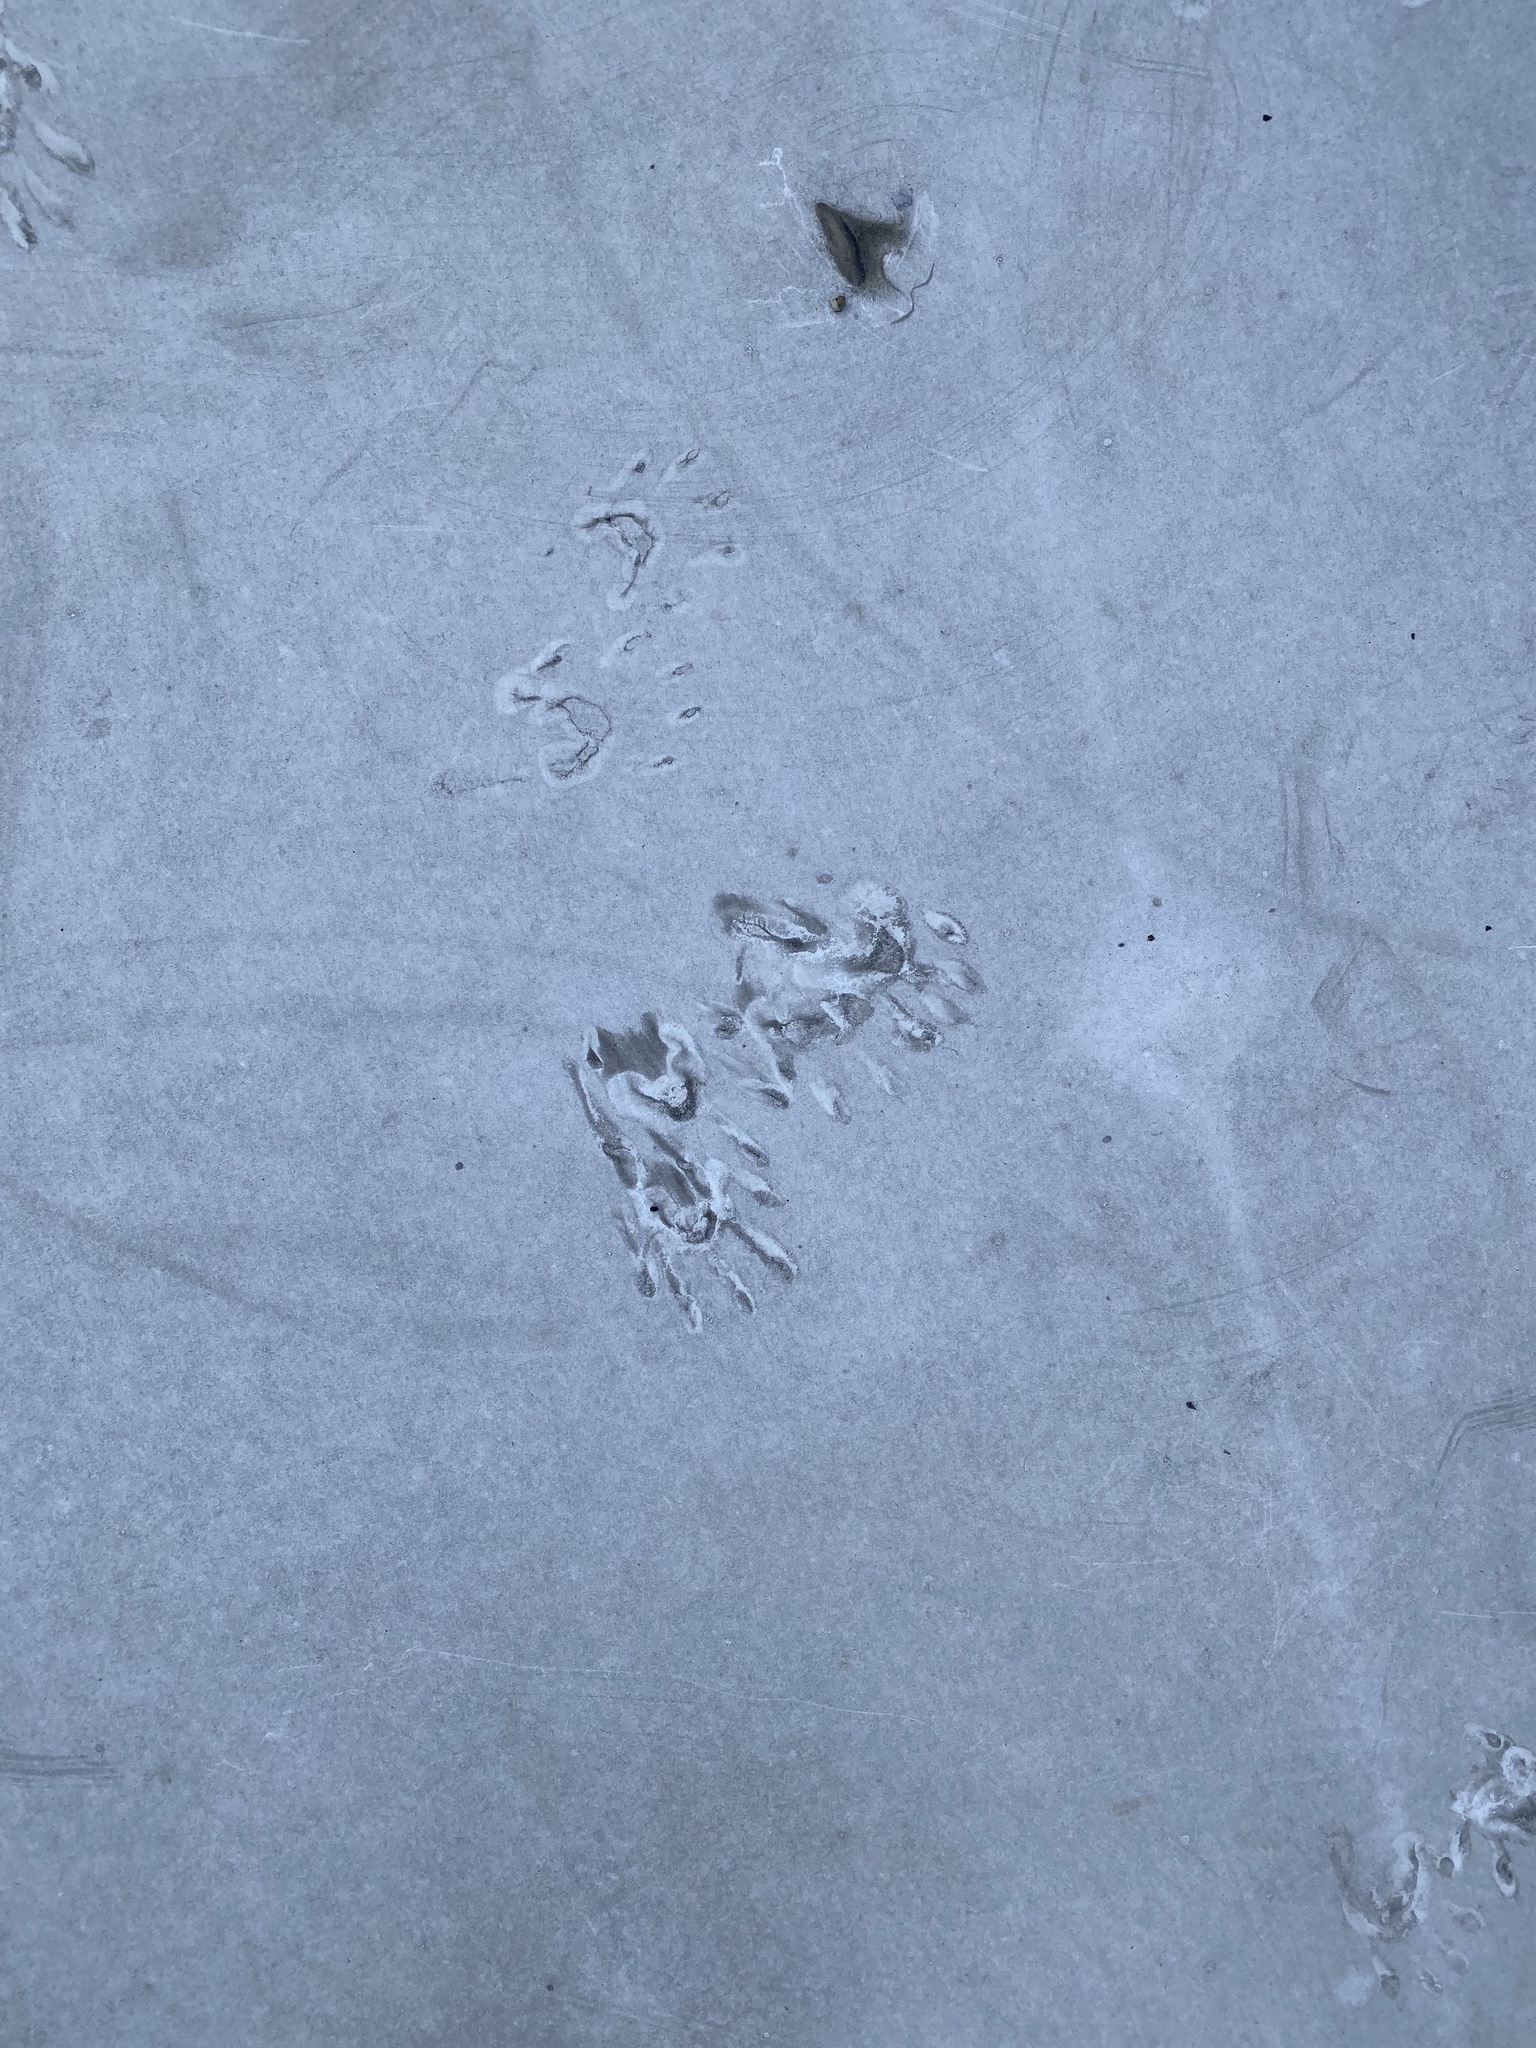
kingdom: Animalia
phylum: Chordata
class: Mammalia
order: Carnivora
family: Procyonidae
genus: Procyon
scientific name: Procyon lotor
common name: Raccoon
